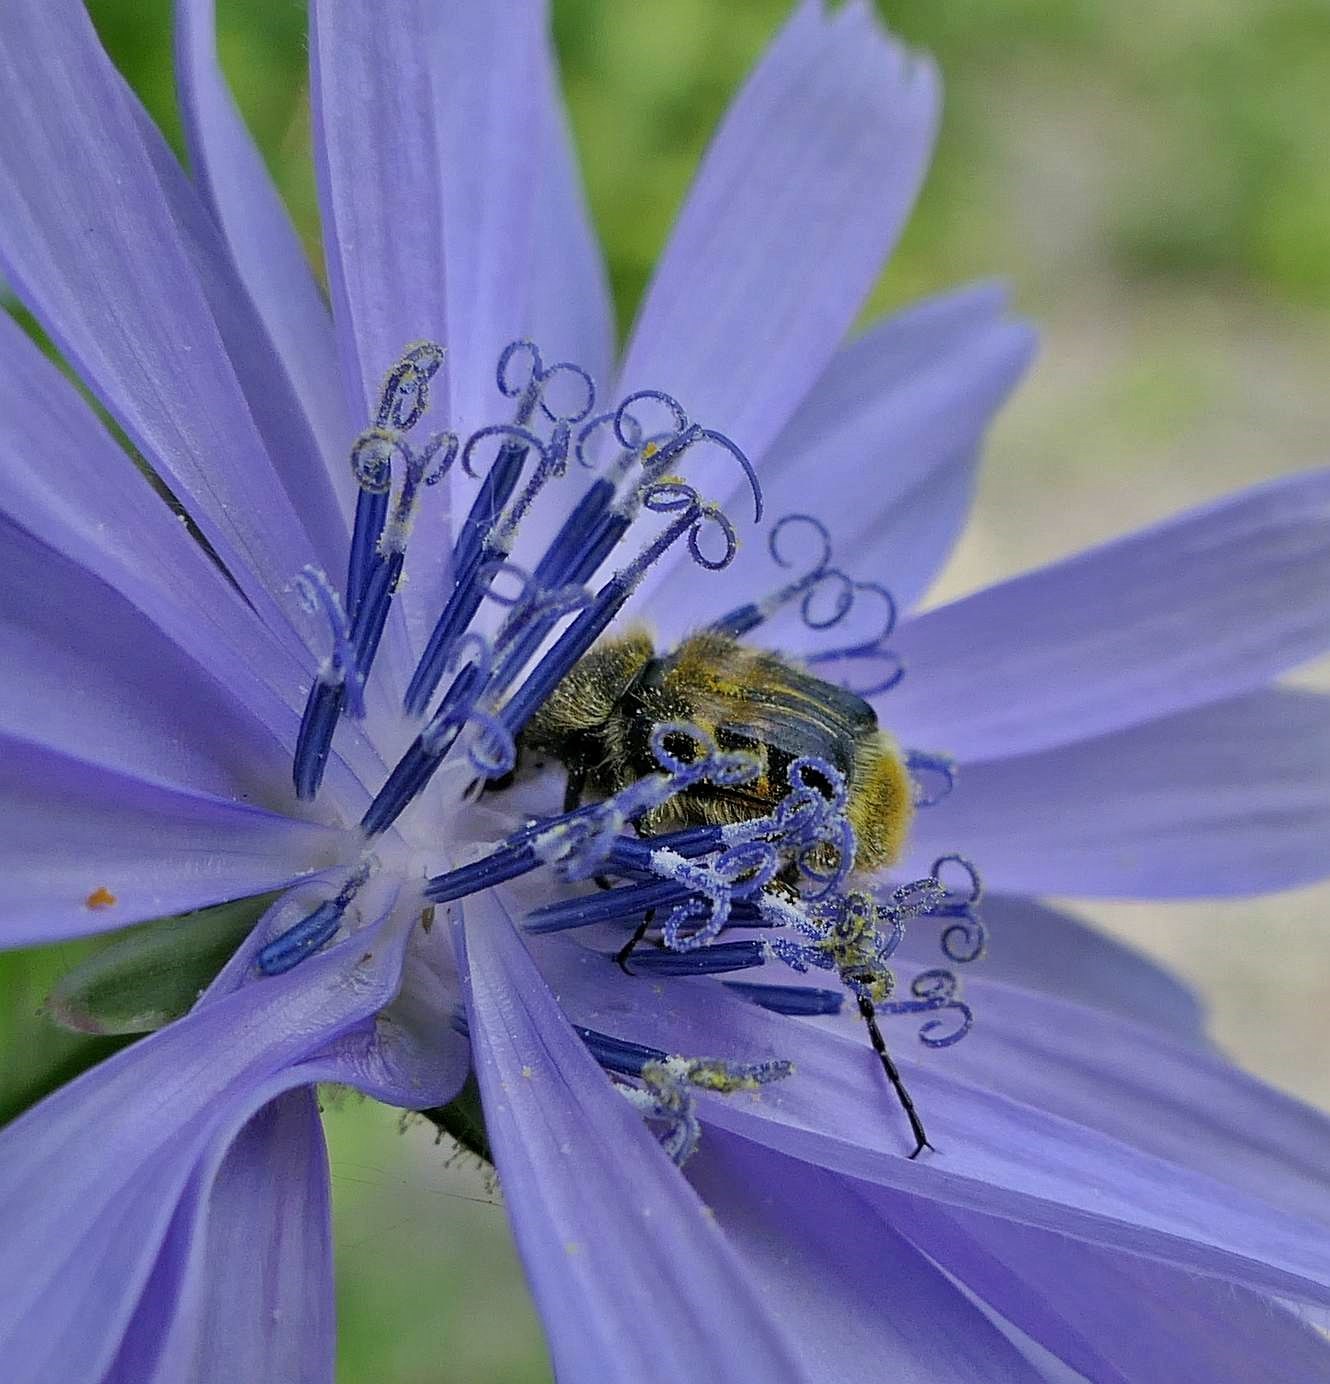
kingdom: Animalia
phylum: Arthropoda
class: Insecta
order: Coleoptera
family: Scarabaeidae
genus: Trichiotinus
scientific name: Trichiotinus assimilis
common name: Bee-mimic beetle
